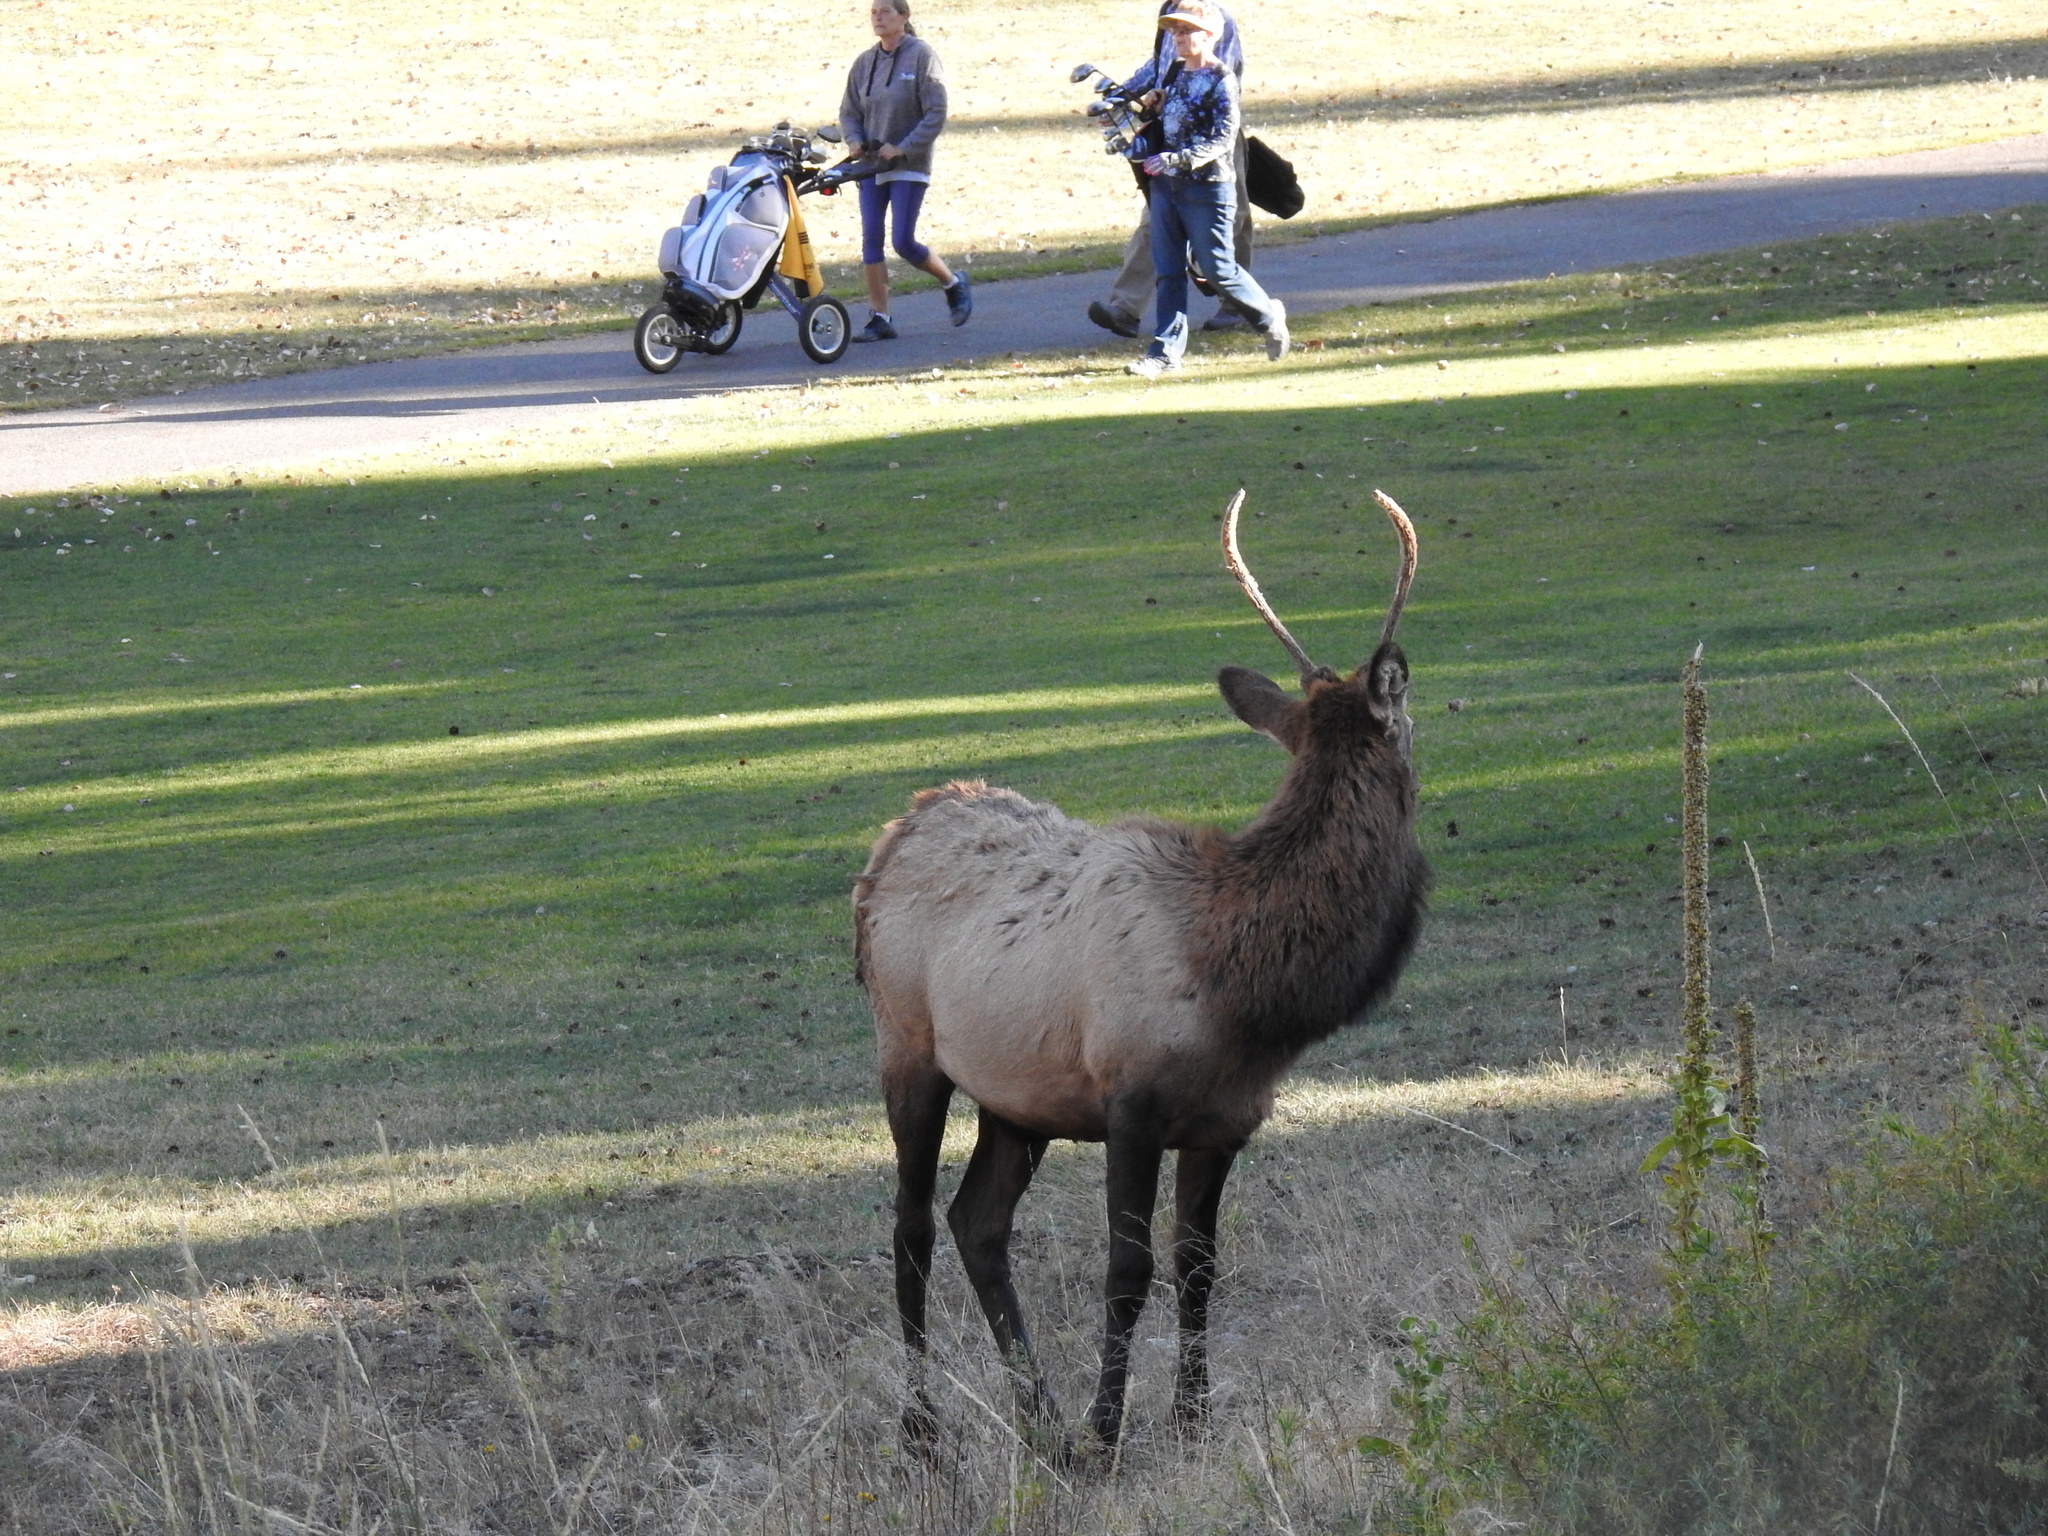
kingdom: Animalia
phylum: Chordata
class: Mammalia
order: Artiodactyla
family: Cervidae
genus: Cervus
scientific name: Cervus elaphus
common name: Red deer
